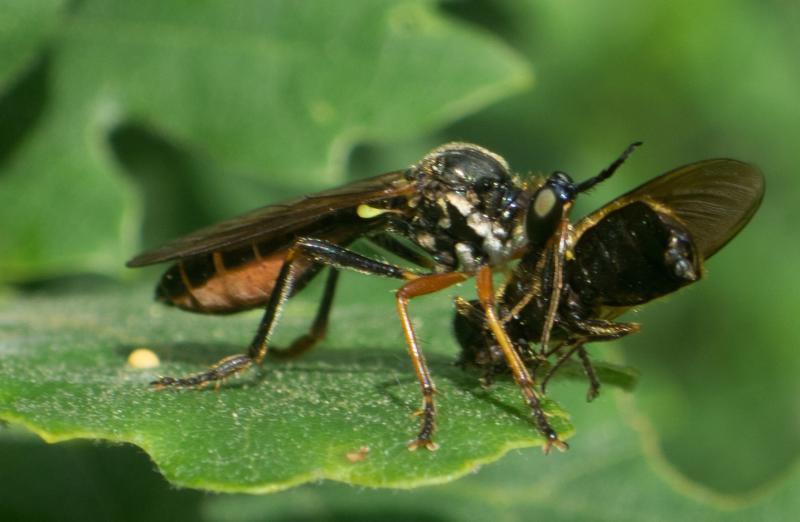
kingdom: Animalia
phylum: Arthropoda
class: Insecta
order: Diptera
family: Asilidae
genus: Dioctria
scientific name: Dioctria rufipes
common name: Common red-legged robberfly
